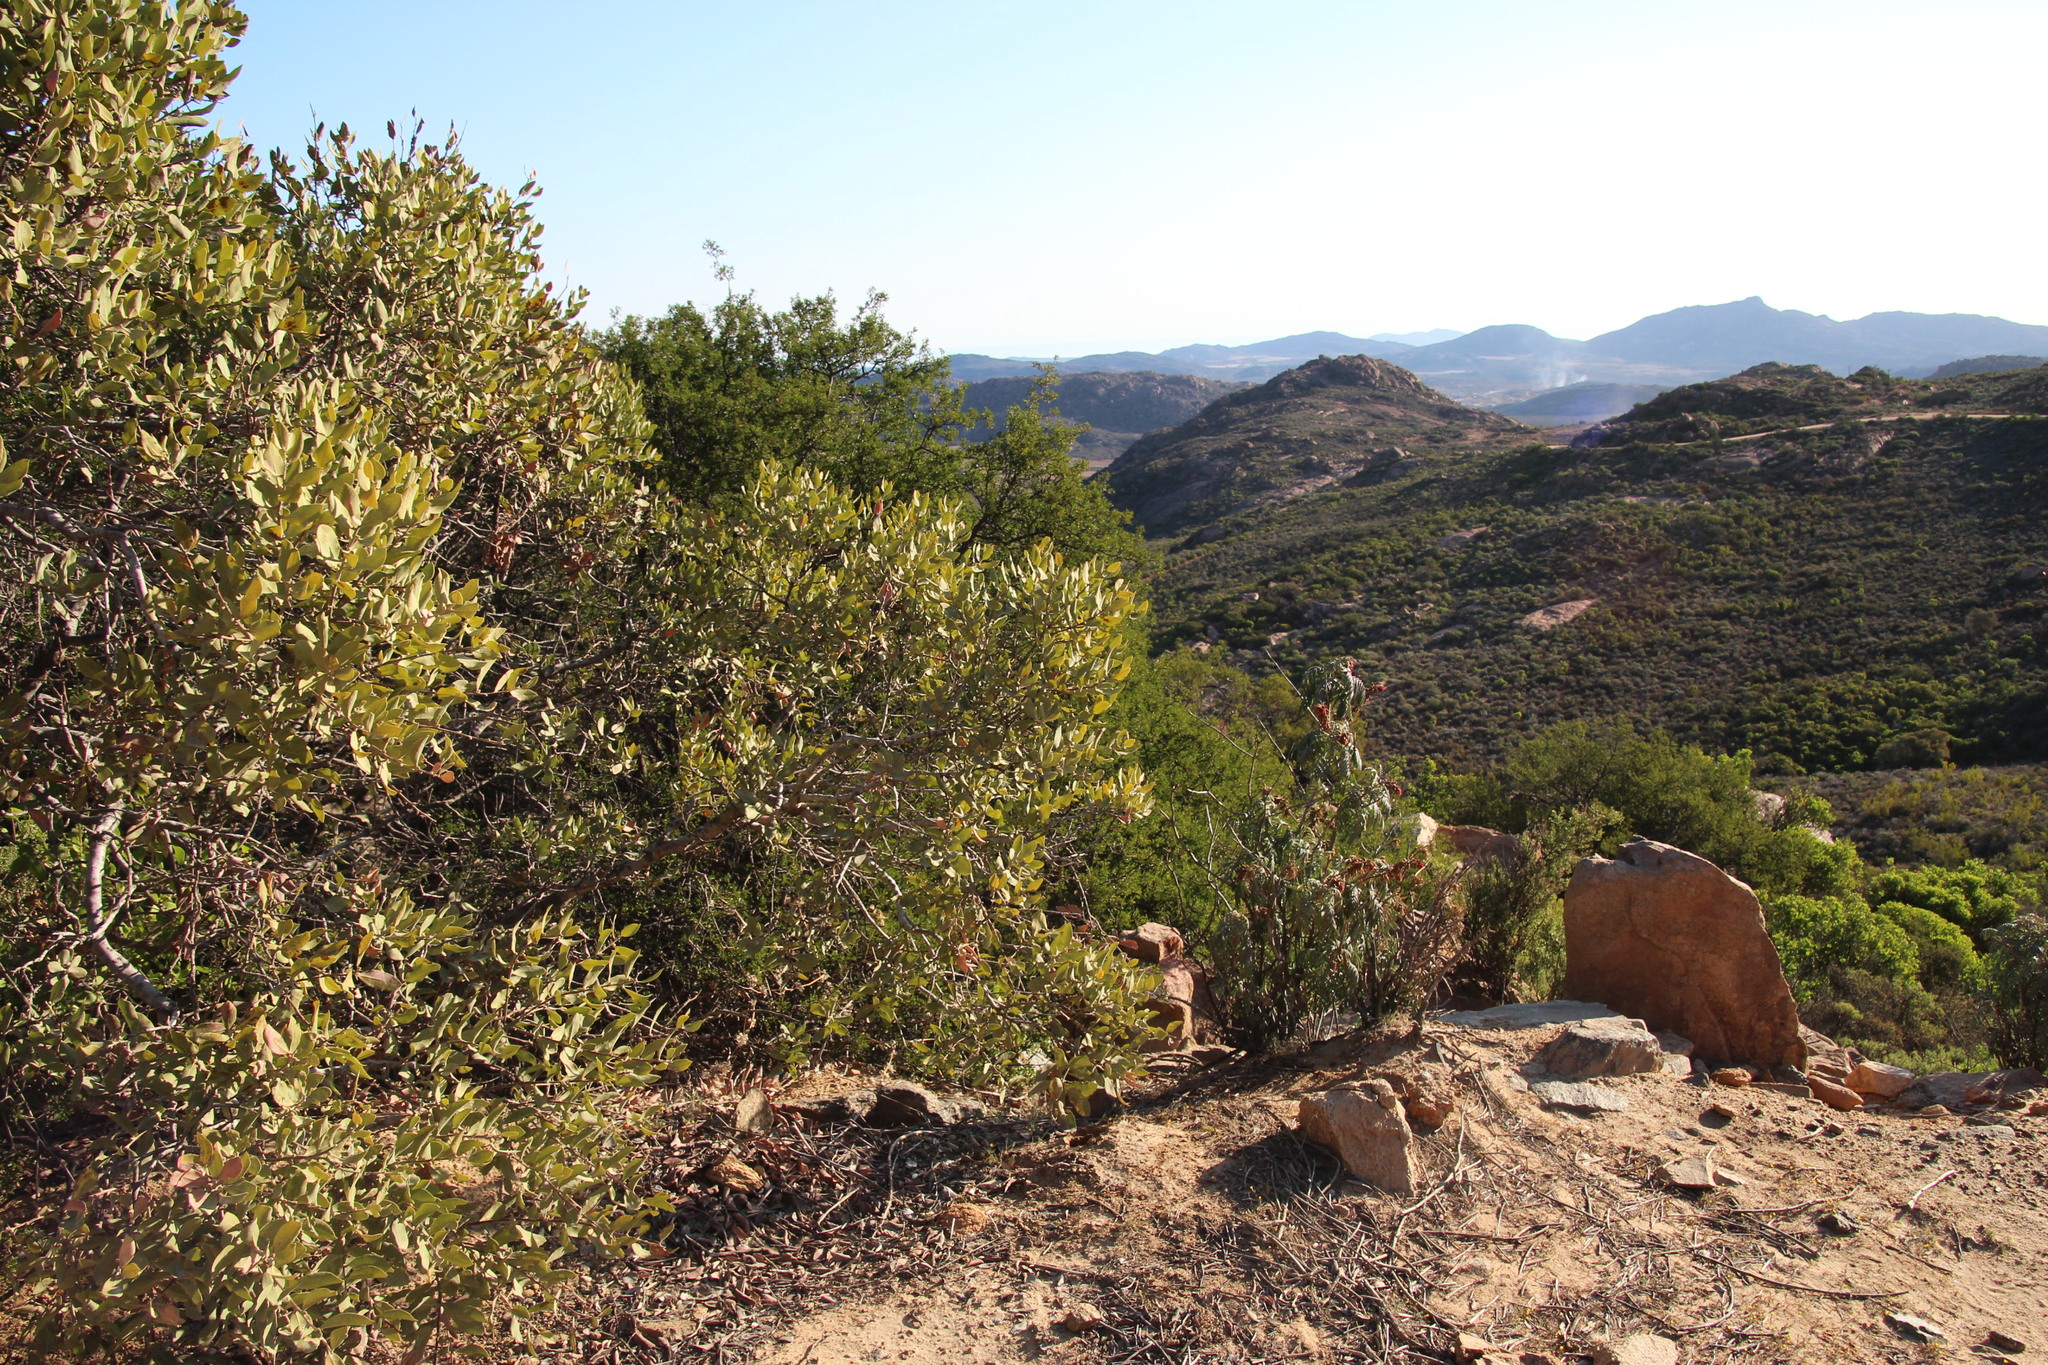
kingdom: Plantae
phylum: Tracheophyta
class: Magnoliopsida
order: Ericales
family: Ebenaceae
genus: Euclea
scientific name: Euclea acutifolia
